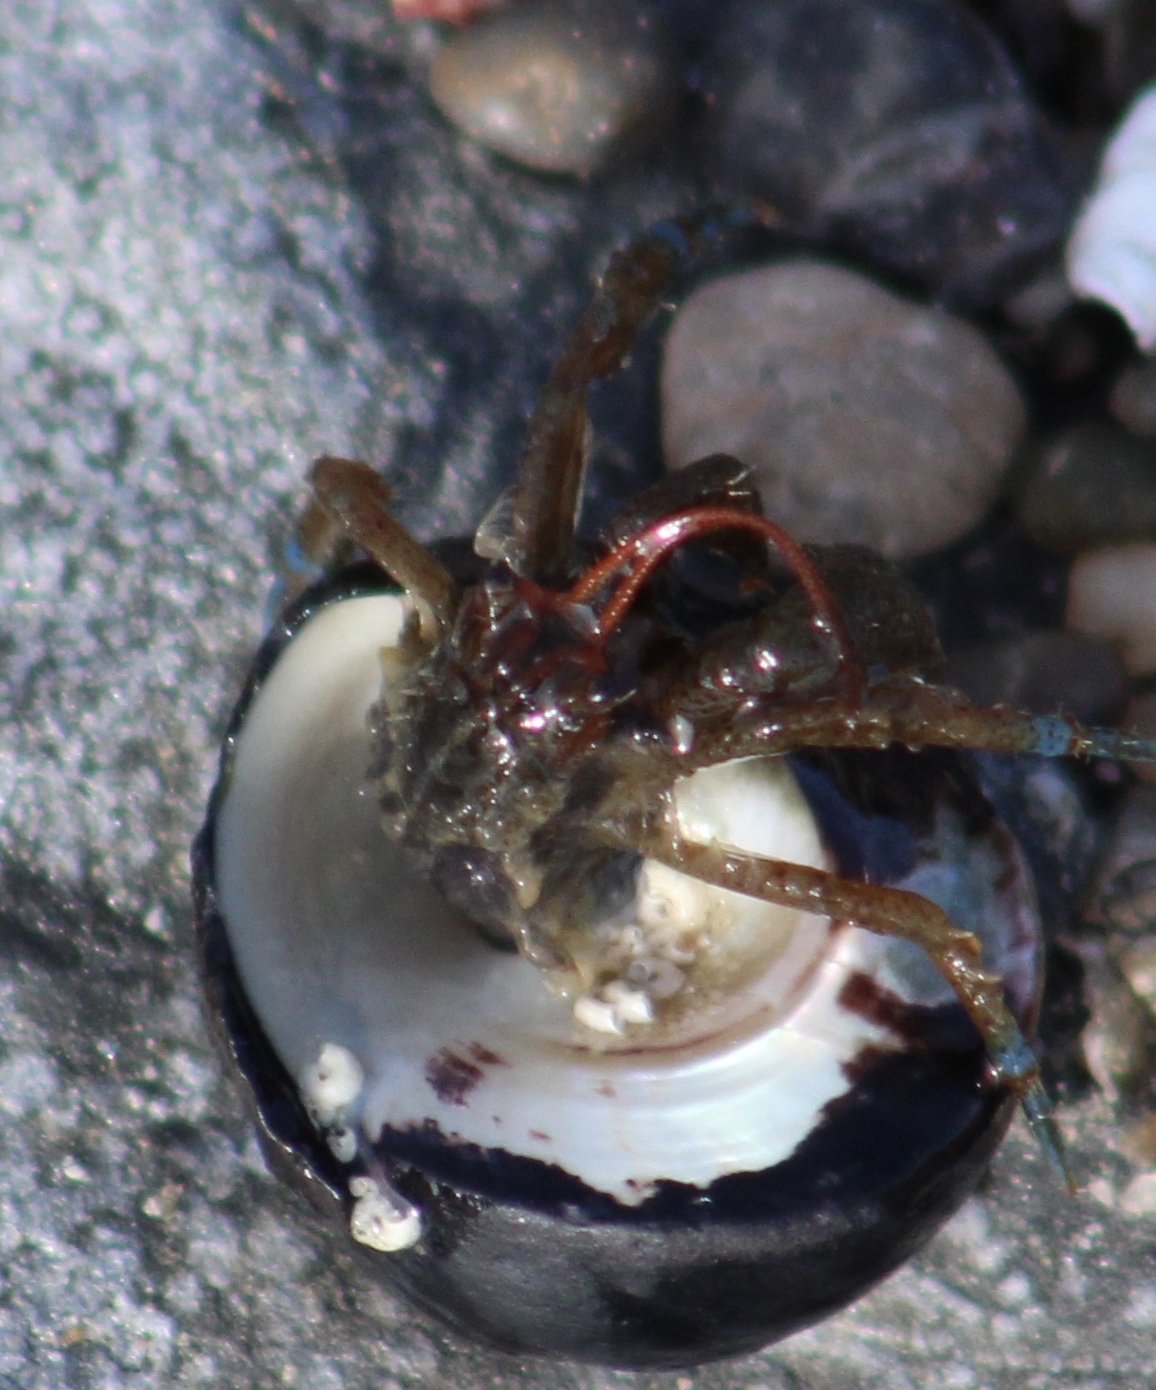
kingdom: Animalia
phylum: Arthropoda
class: Malacostraca
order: Decapoda
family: Paguridae
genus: Pagurus
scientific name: Pagurus samuelis
